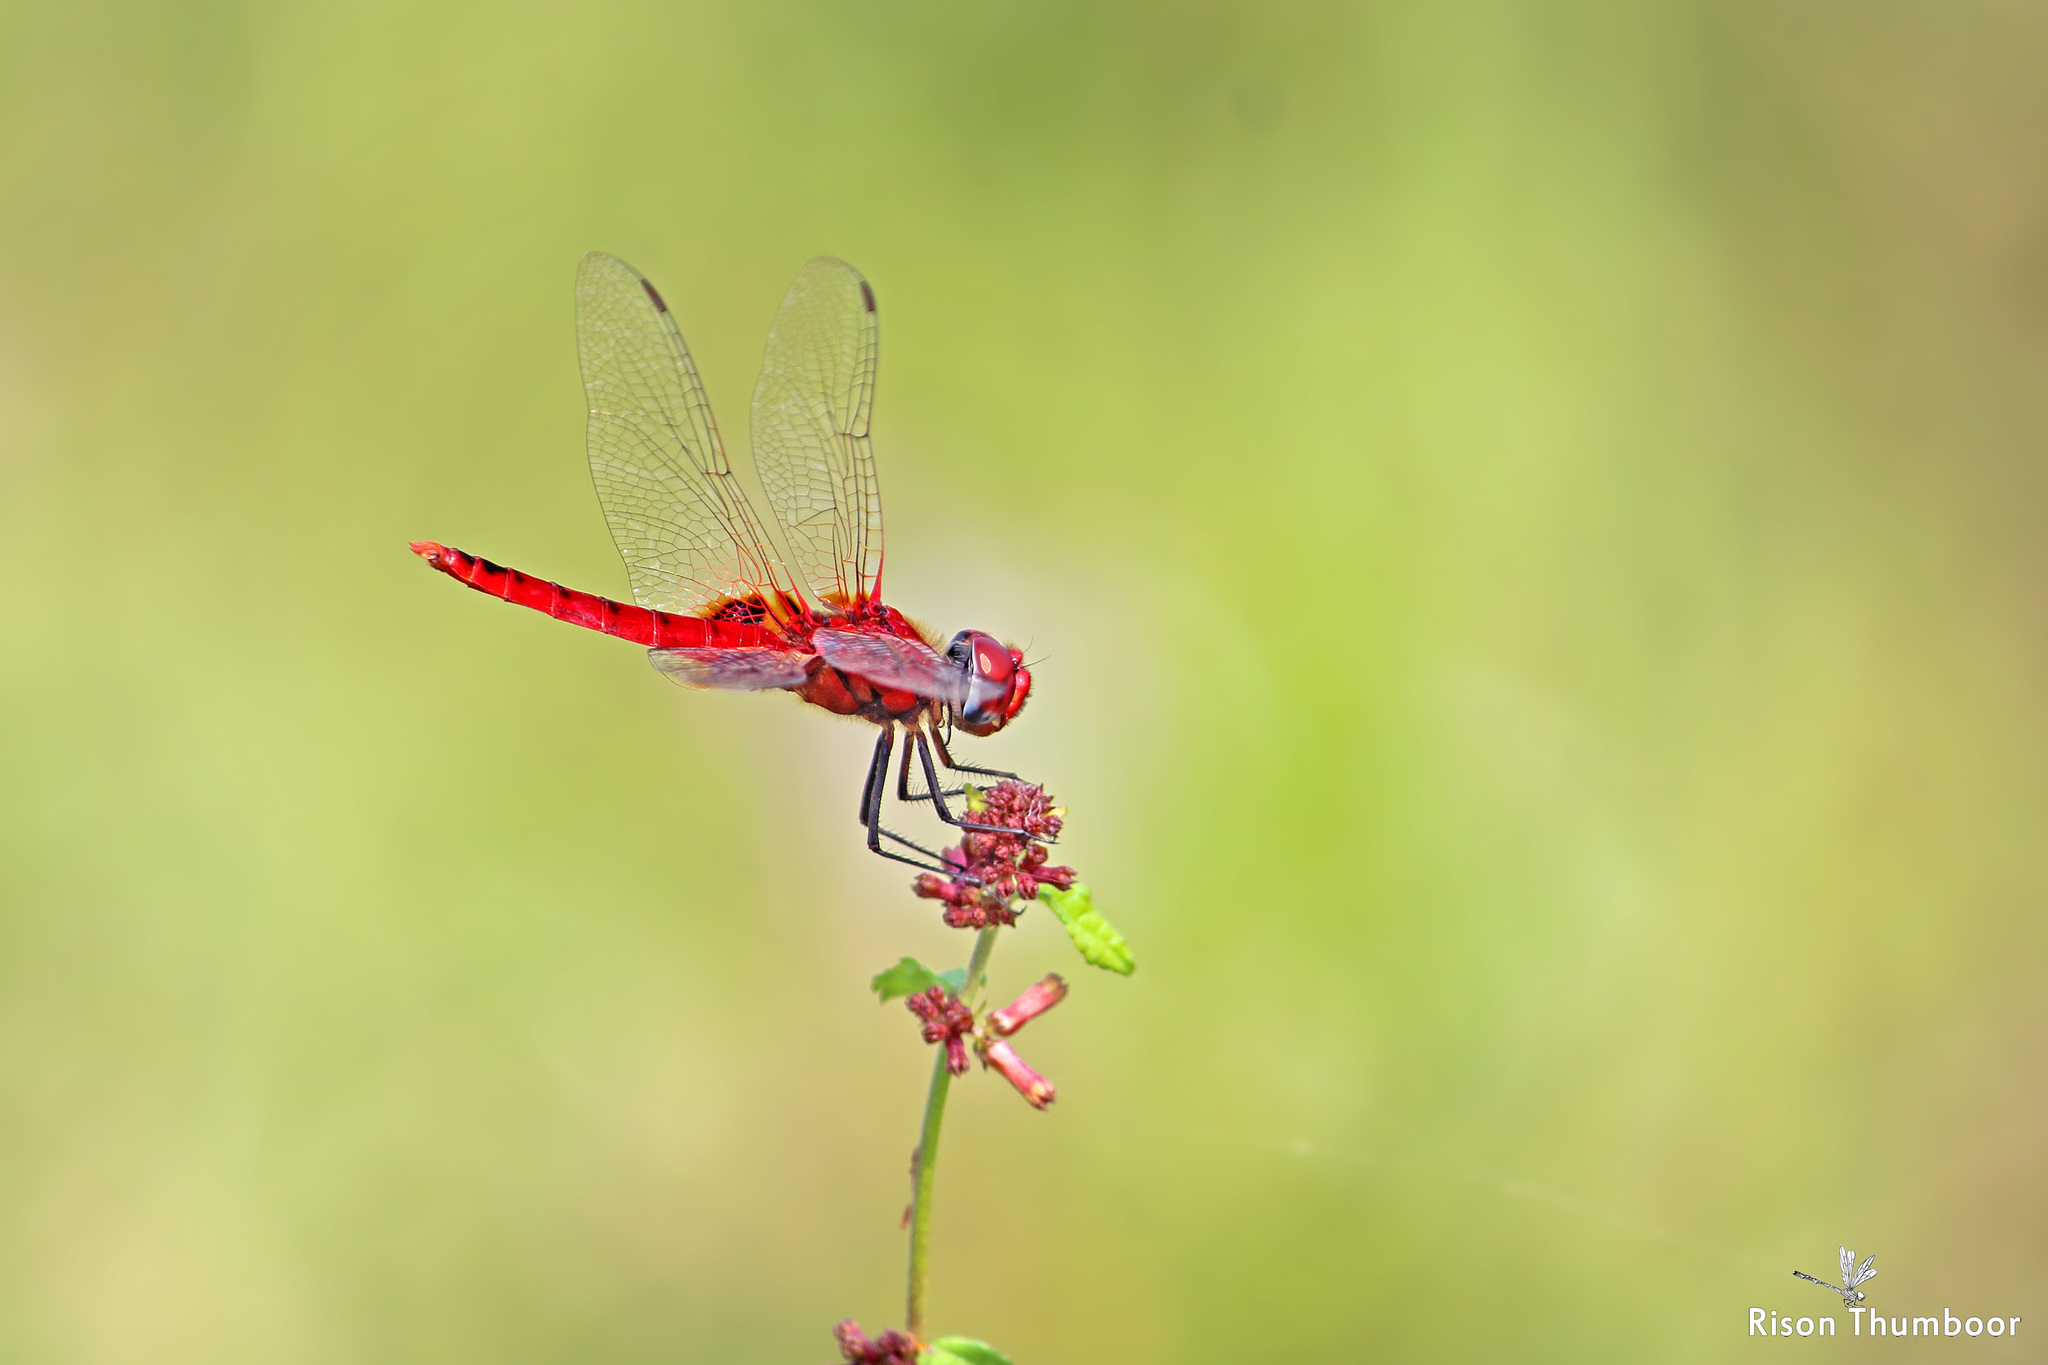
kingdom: Animalia
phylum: Arthropoda
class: Insecta
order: Odonata
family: Libellulidae
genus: Urothemis
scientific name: Urothemis signata
